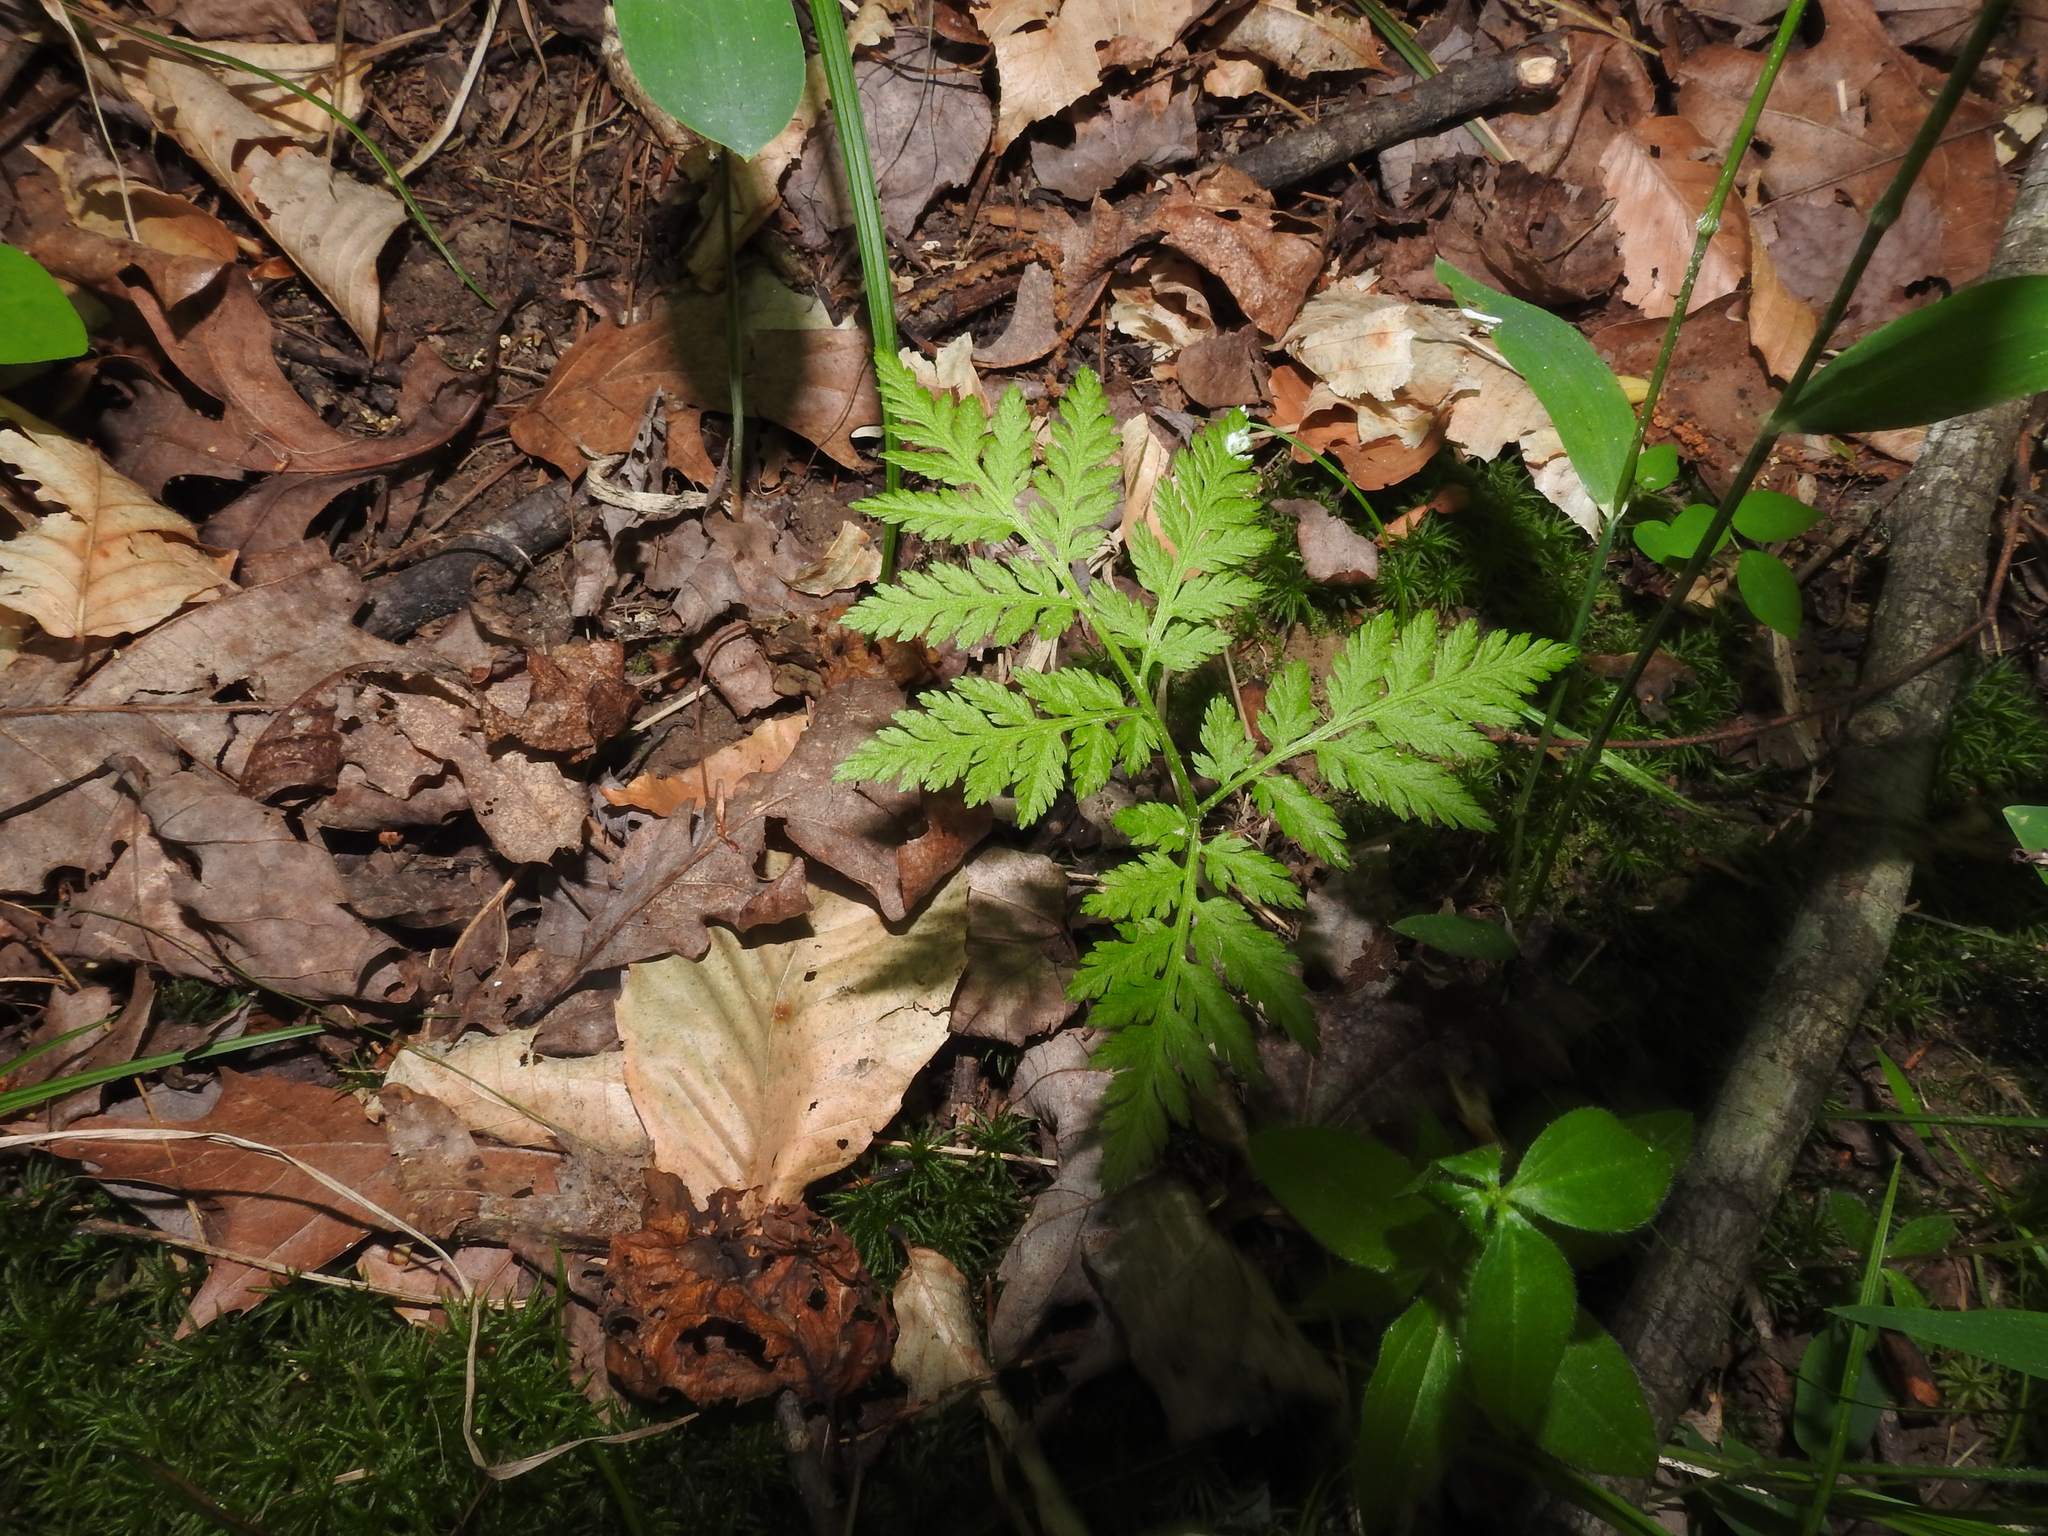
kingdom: Plantae
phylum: Tracheophyta
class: Polypodiopsida
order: Ophioglossales
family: Ophioglossaceae
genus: Botrypus
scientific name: Botrypus virginianus
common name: Common grapefern
